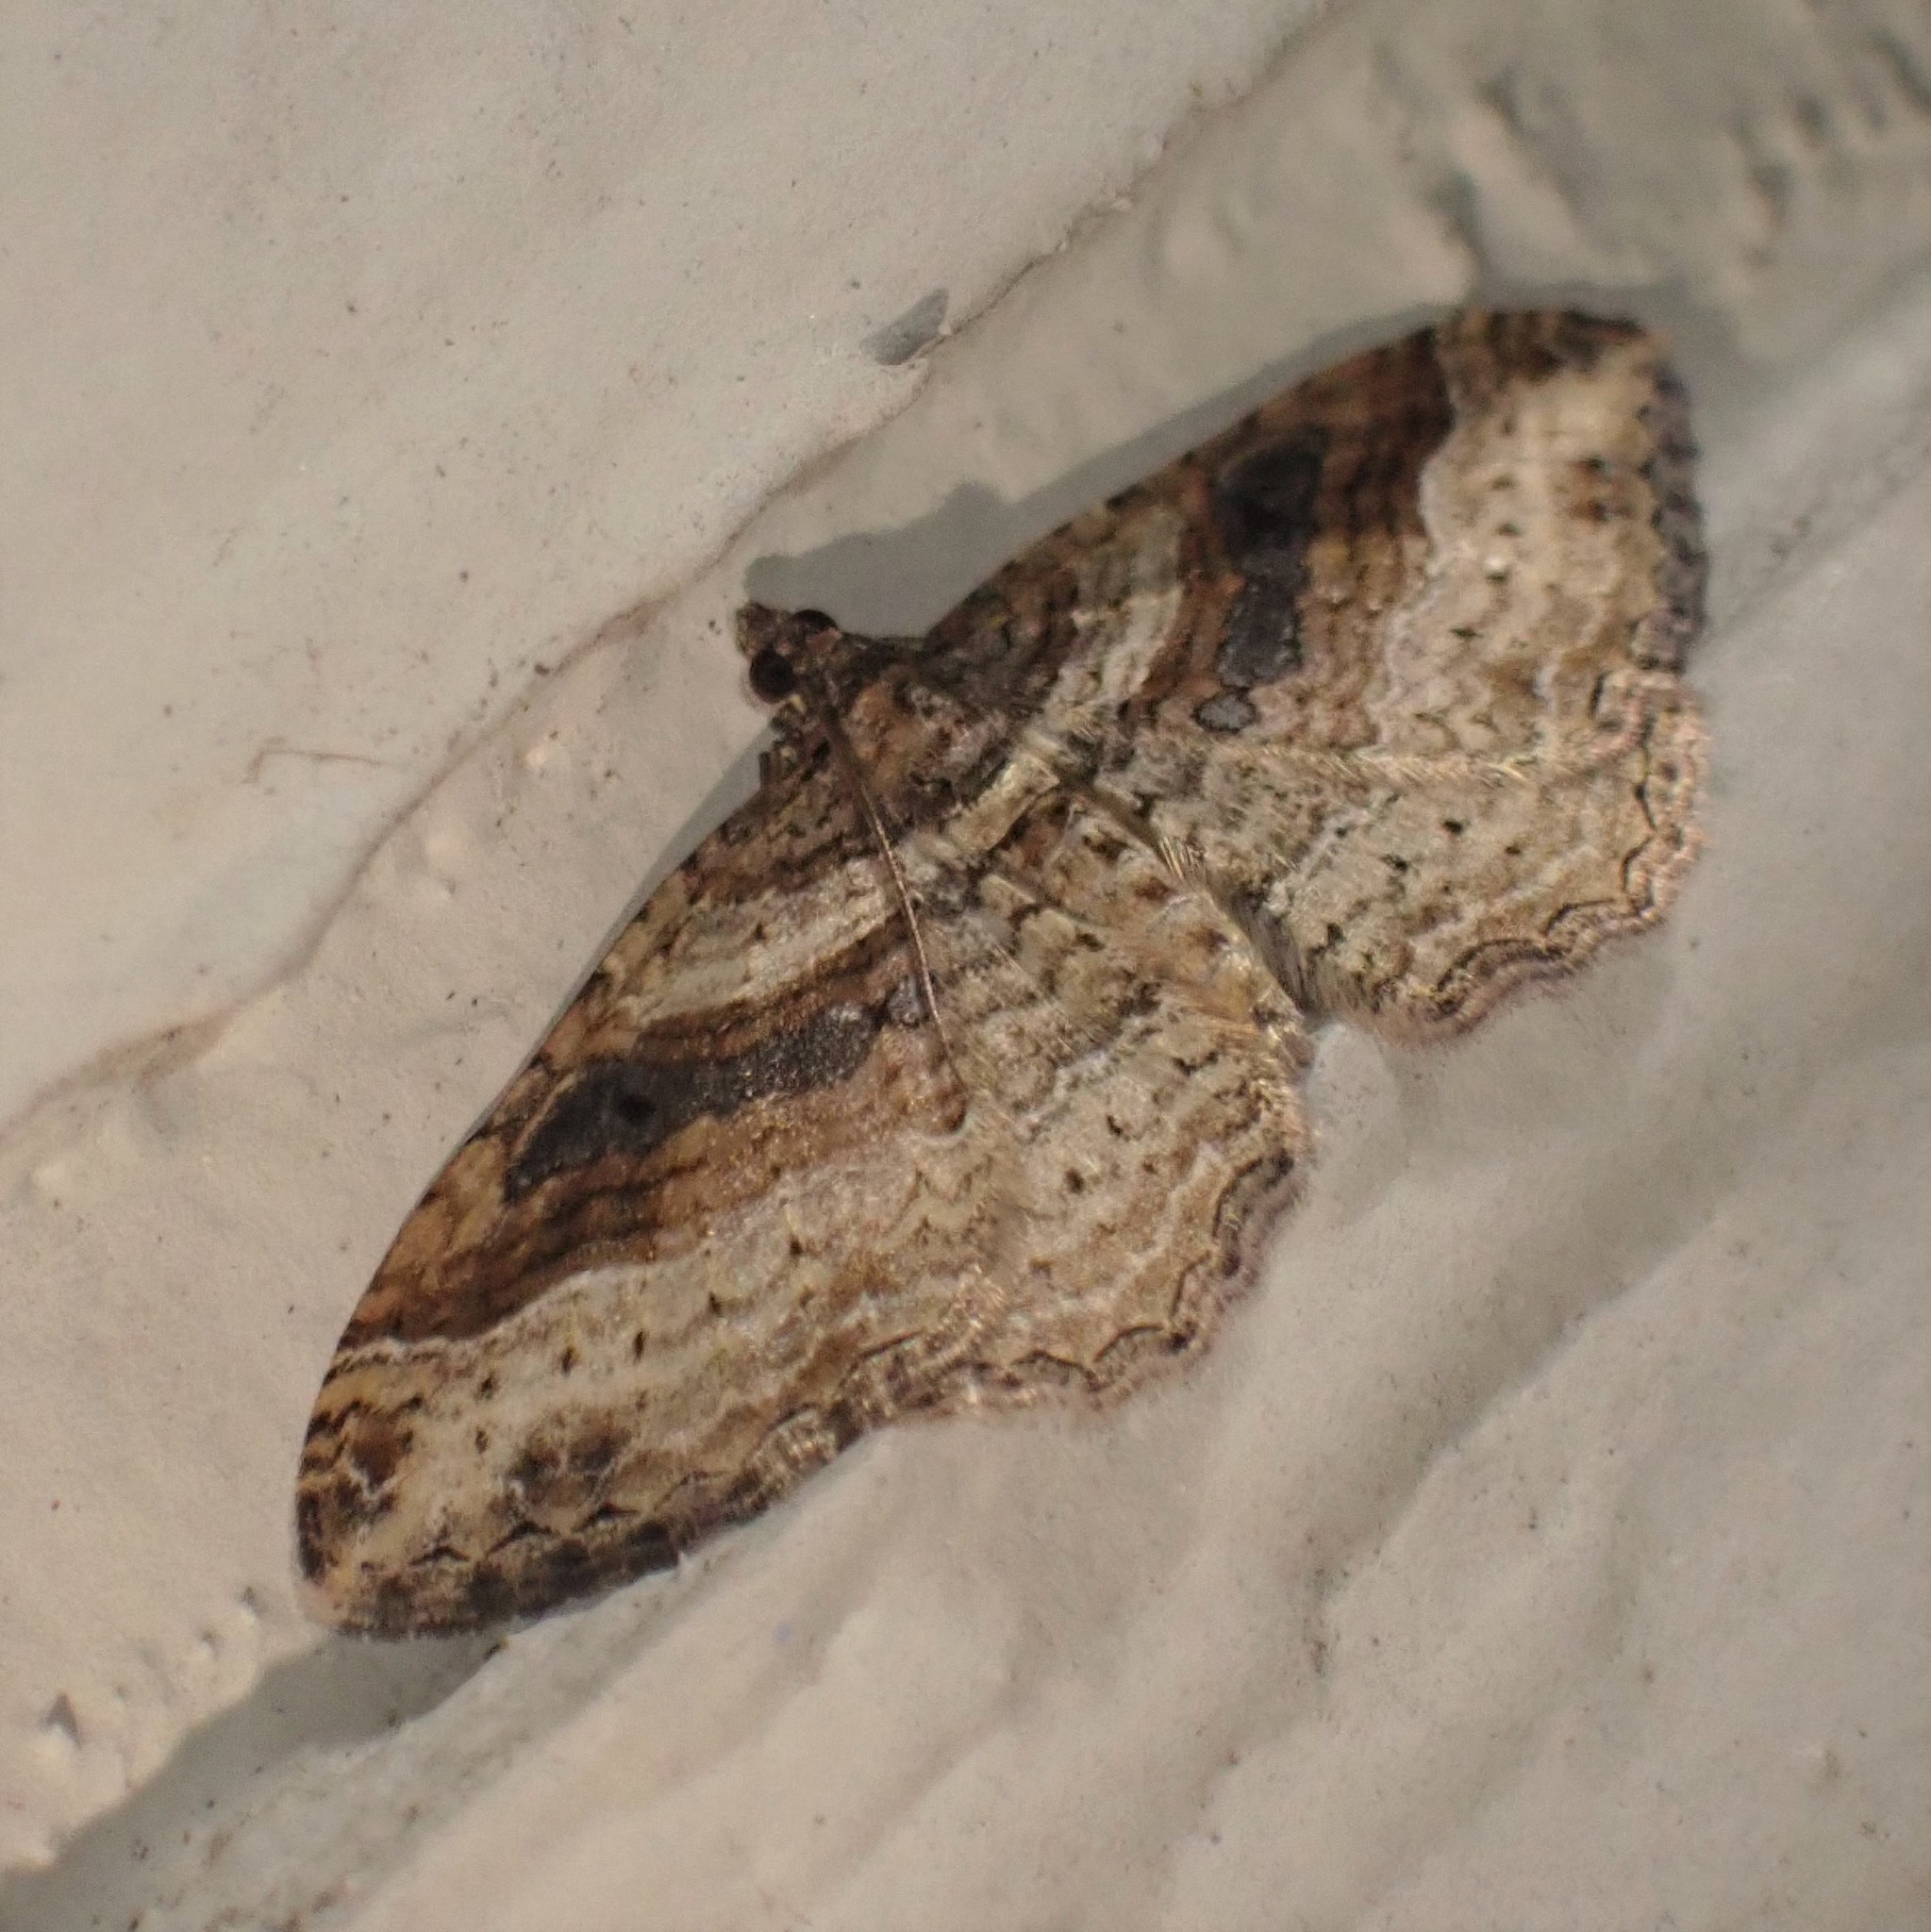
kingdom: Animalia
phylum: Arthropoda
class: Insecta
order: Lepidoptera
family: Geometridae
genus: Costaconvexa
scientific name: Costaconvexa centrostrigaria
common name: Bent-line carpet
